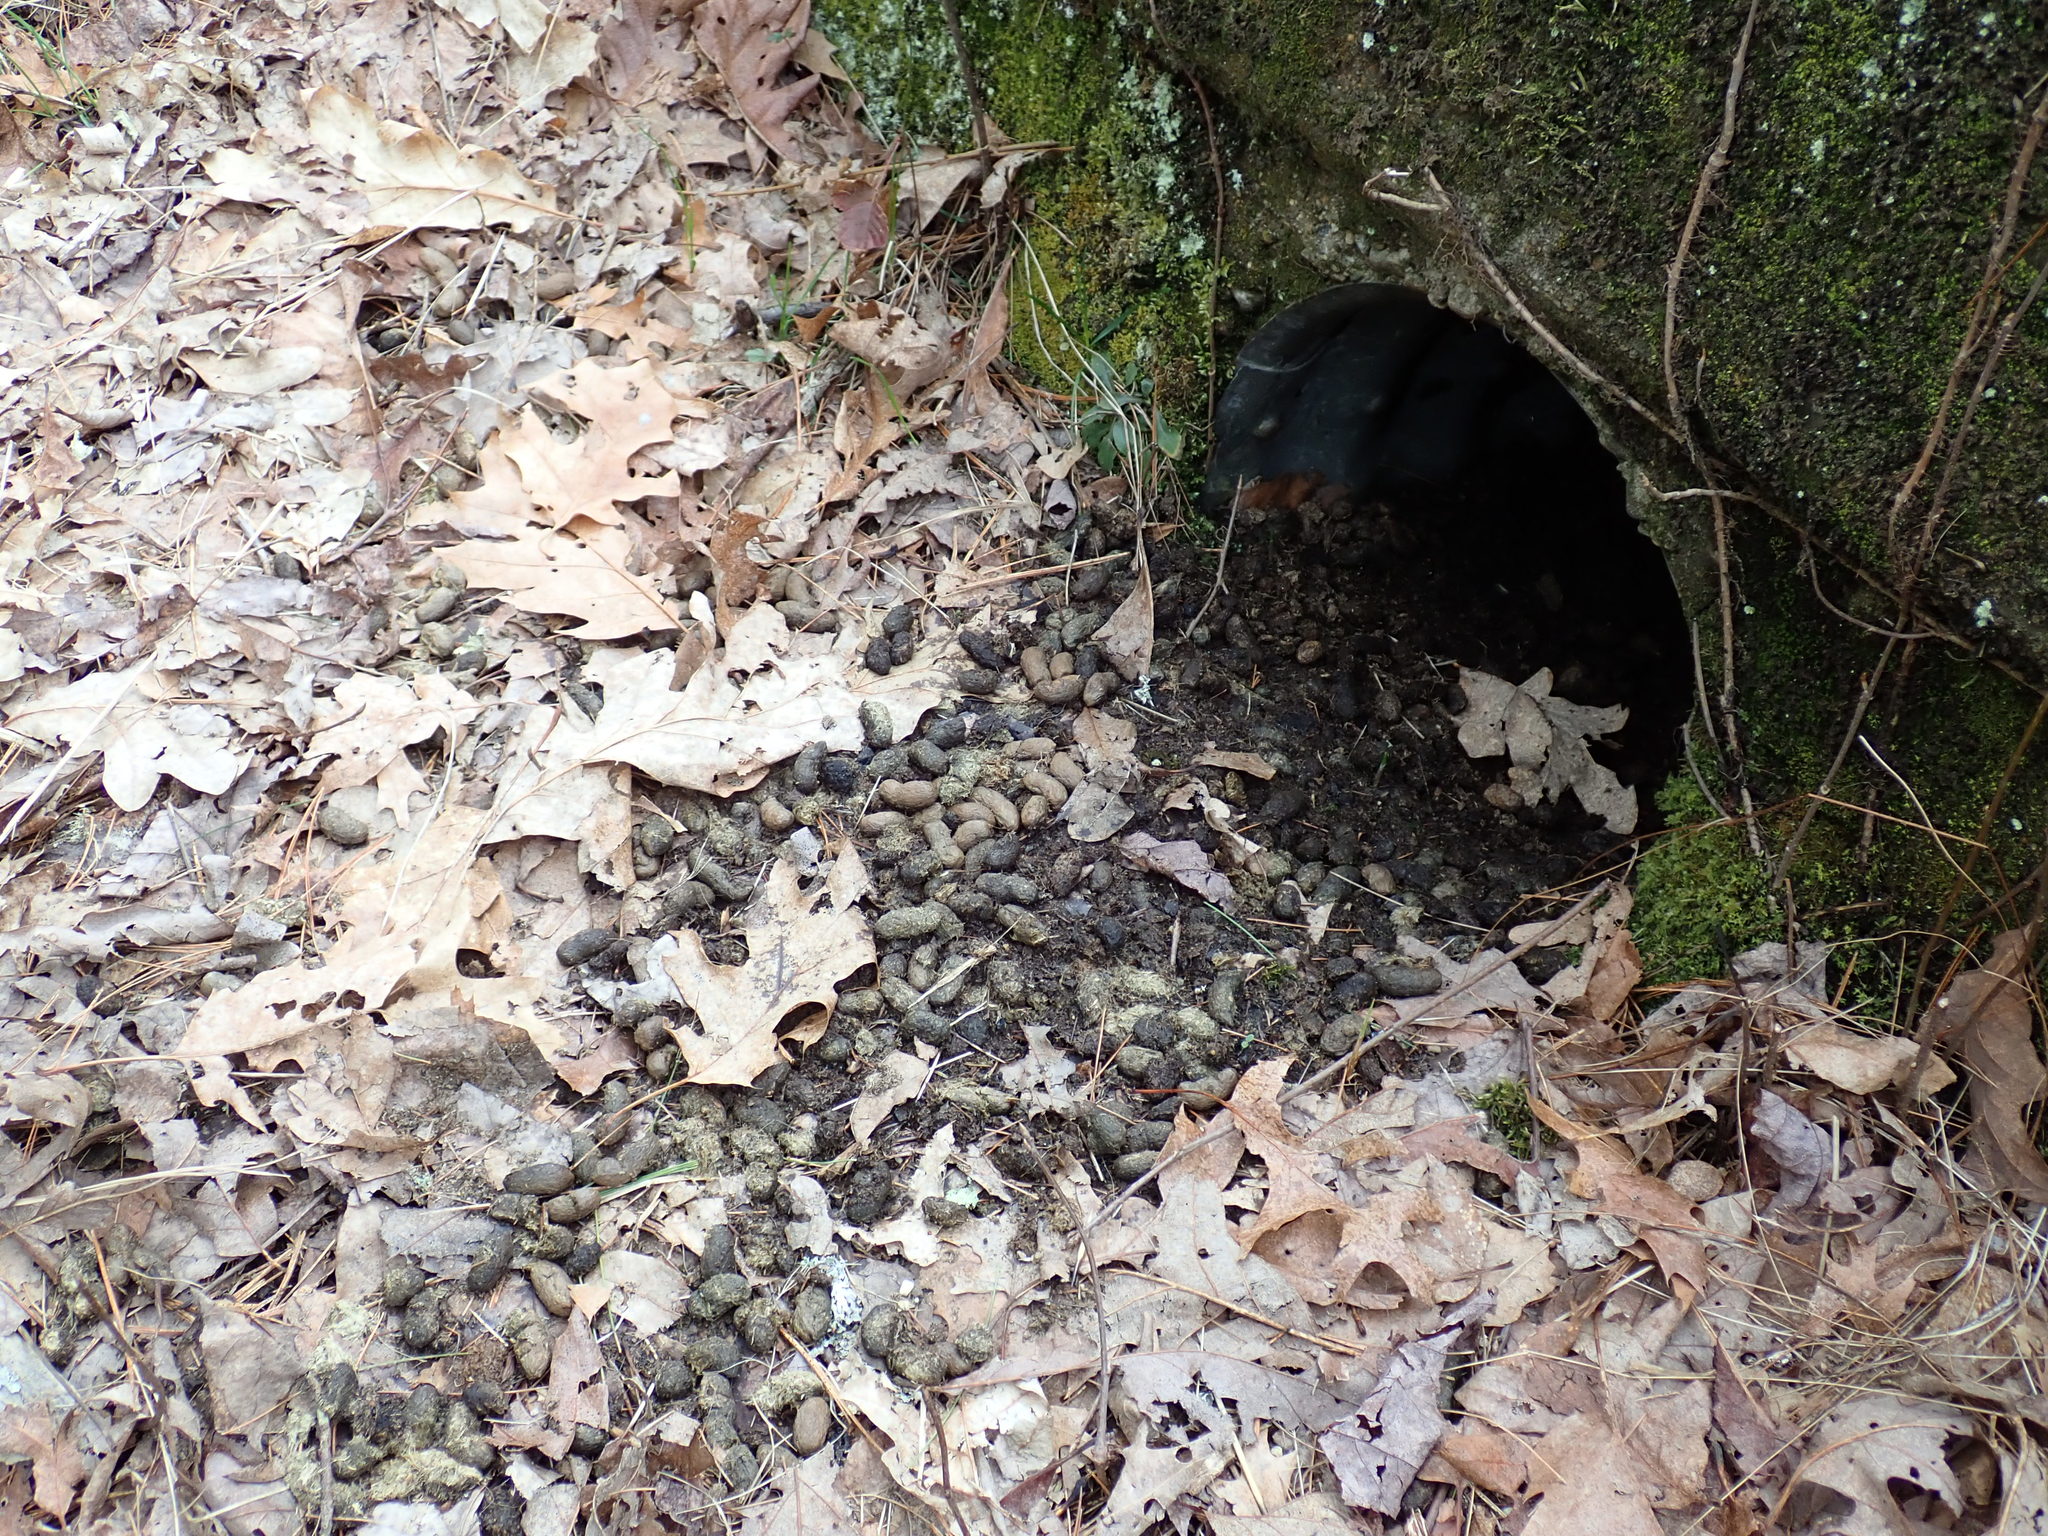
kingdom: Animalia
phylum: Chordata
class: Mammalia
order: Rodentia
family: Erethizontidae
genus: Erethizon
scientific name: Erethizon dorsatus
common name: North american porcupine
